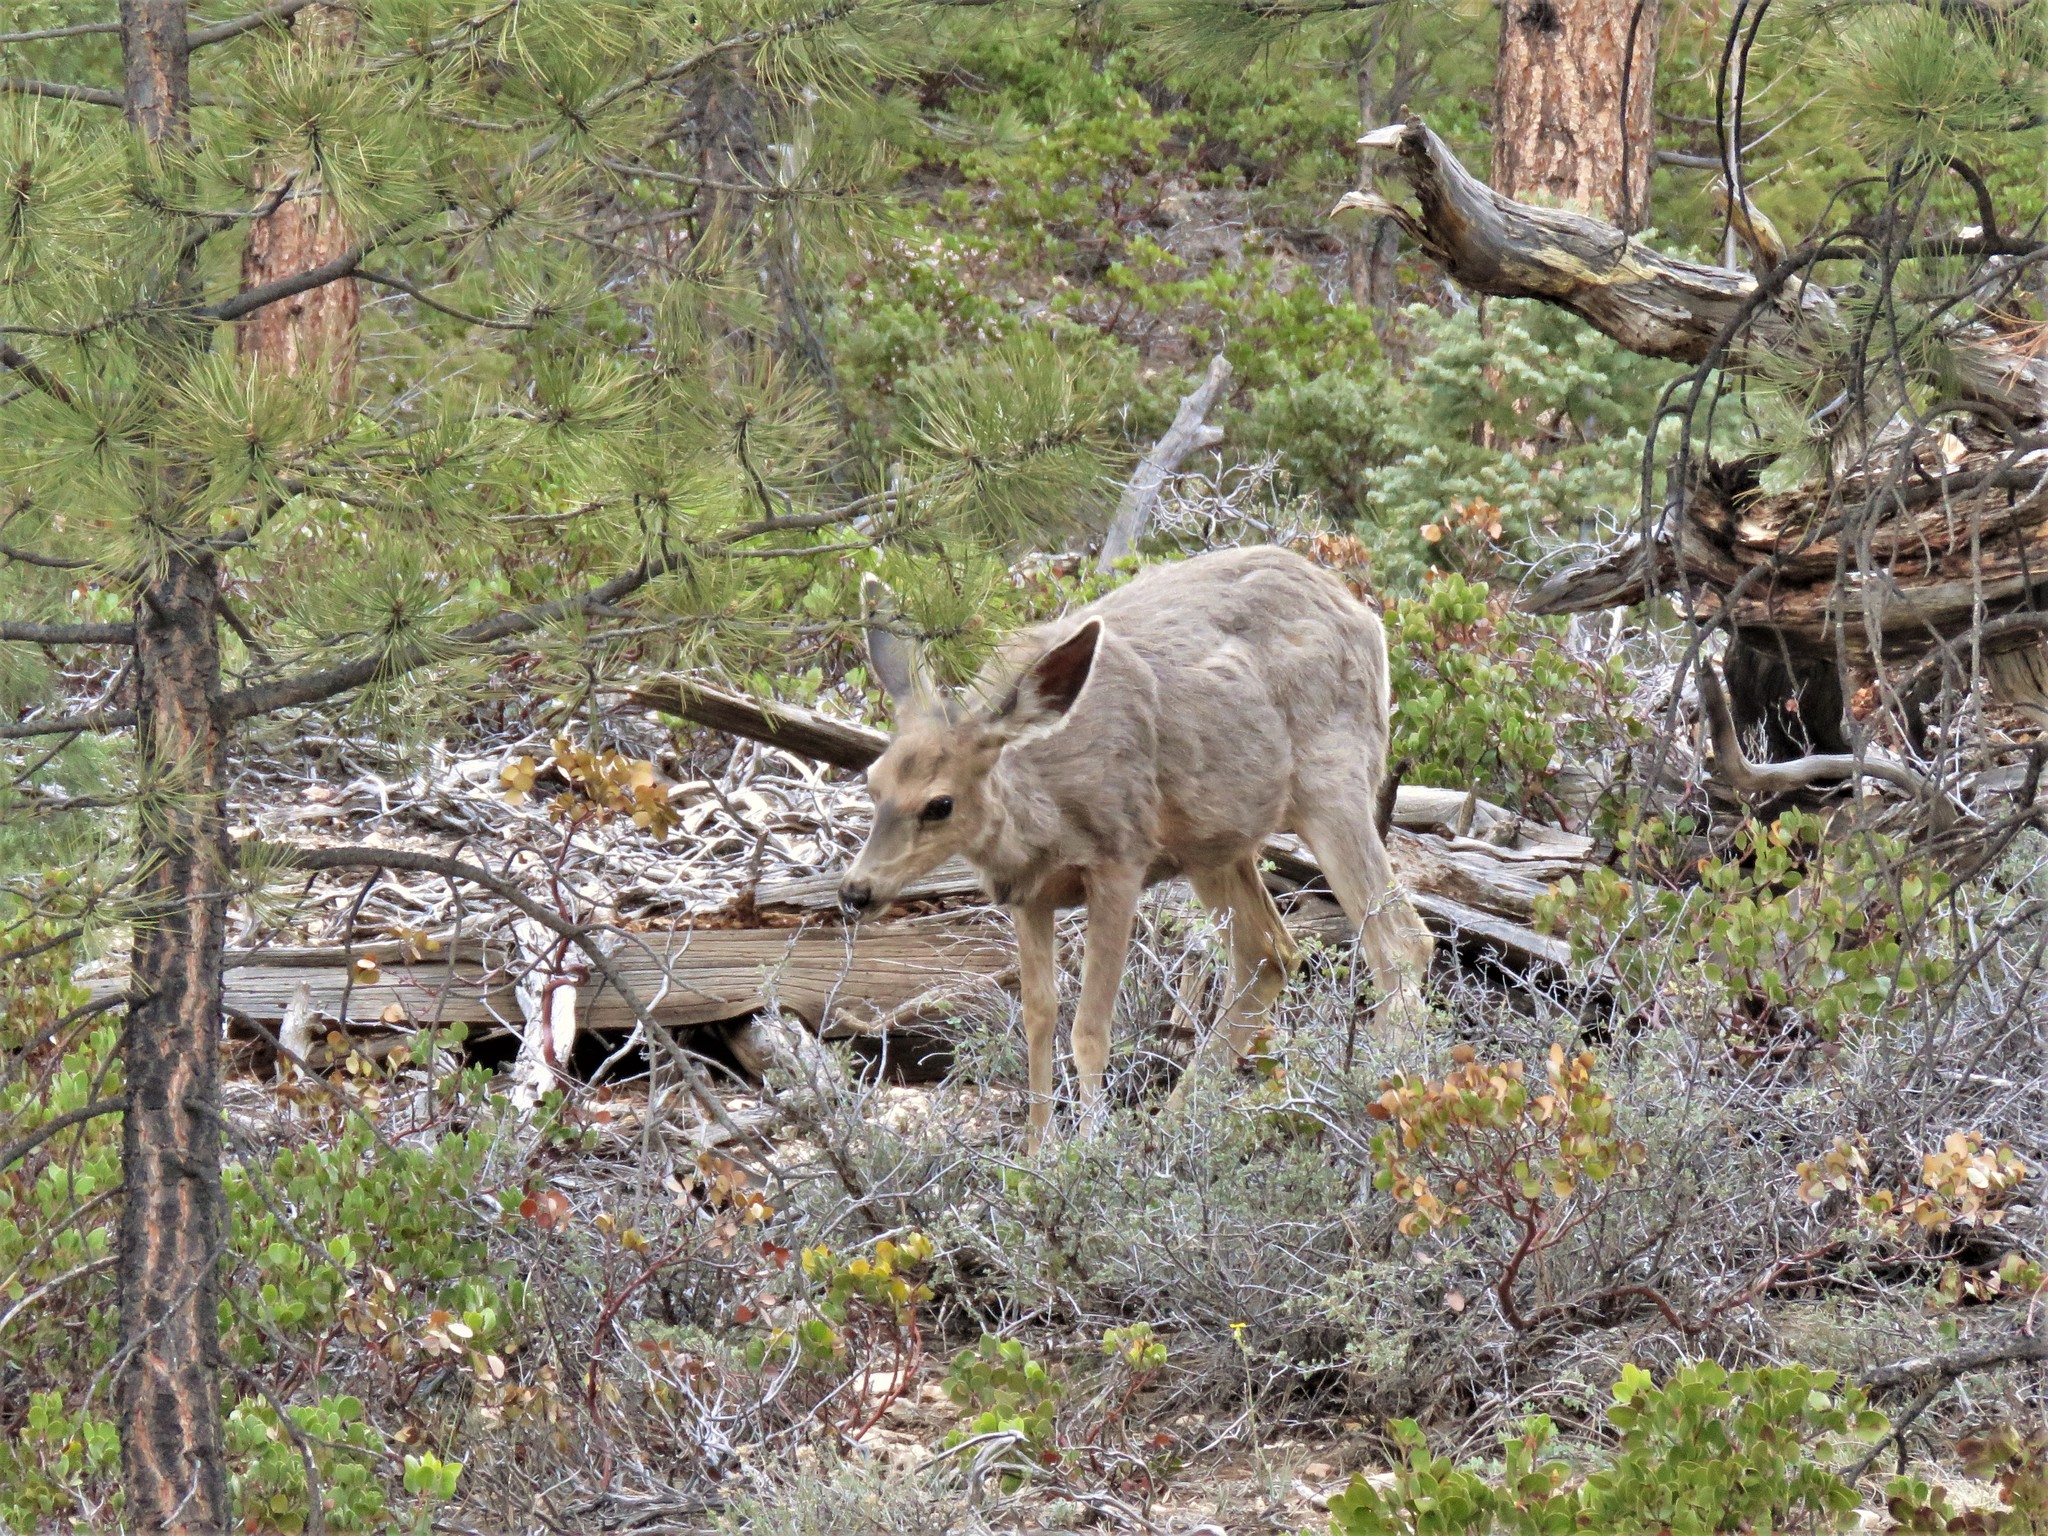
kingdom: Animalia
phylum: Chordata
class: Mammalia
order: Artiodactyla
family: Cervidae
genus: Odocoileus
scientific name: Odocoileus hemionus
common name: Mule deer
